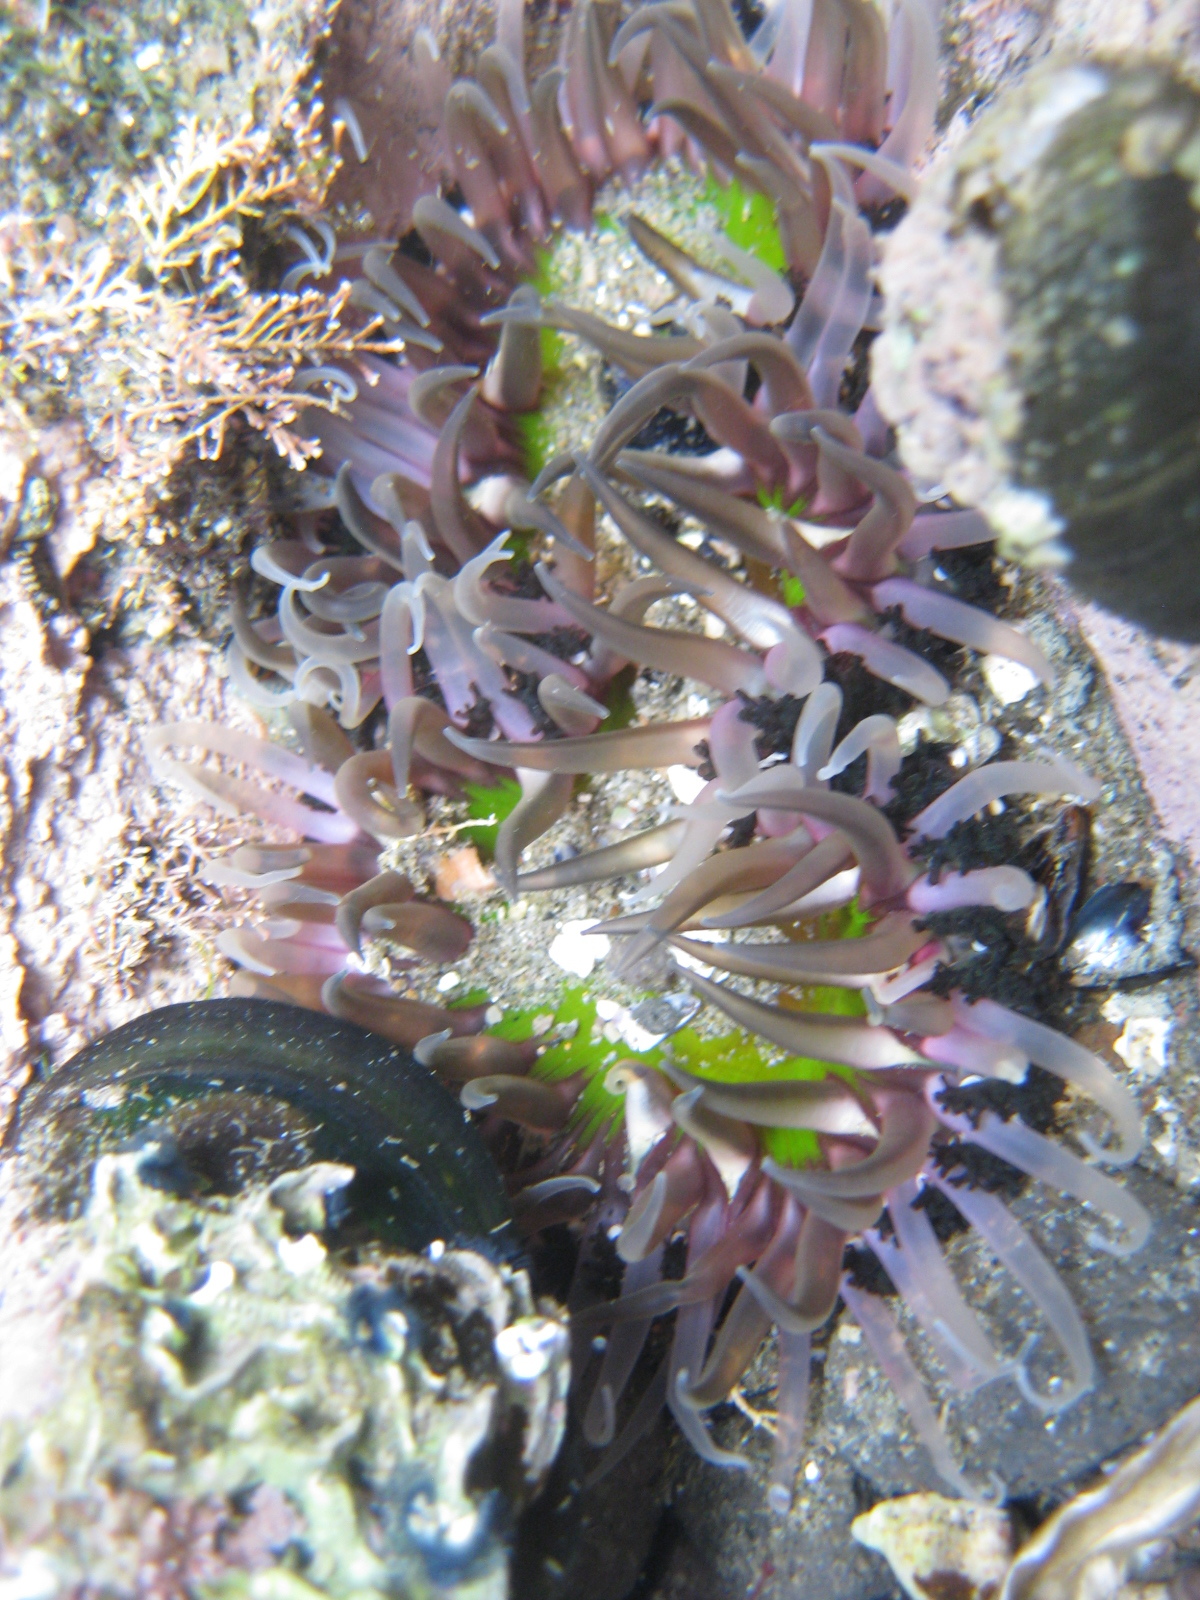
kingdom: Animalia
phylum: Cnidaria
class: Anthozoa
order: Actiniaria
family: Actiniidae
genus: Oulactis
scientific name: Oulactis magna
